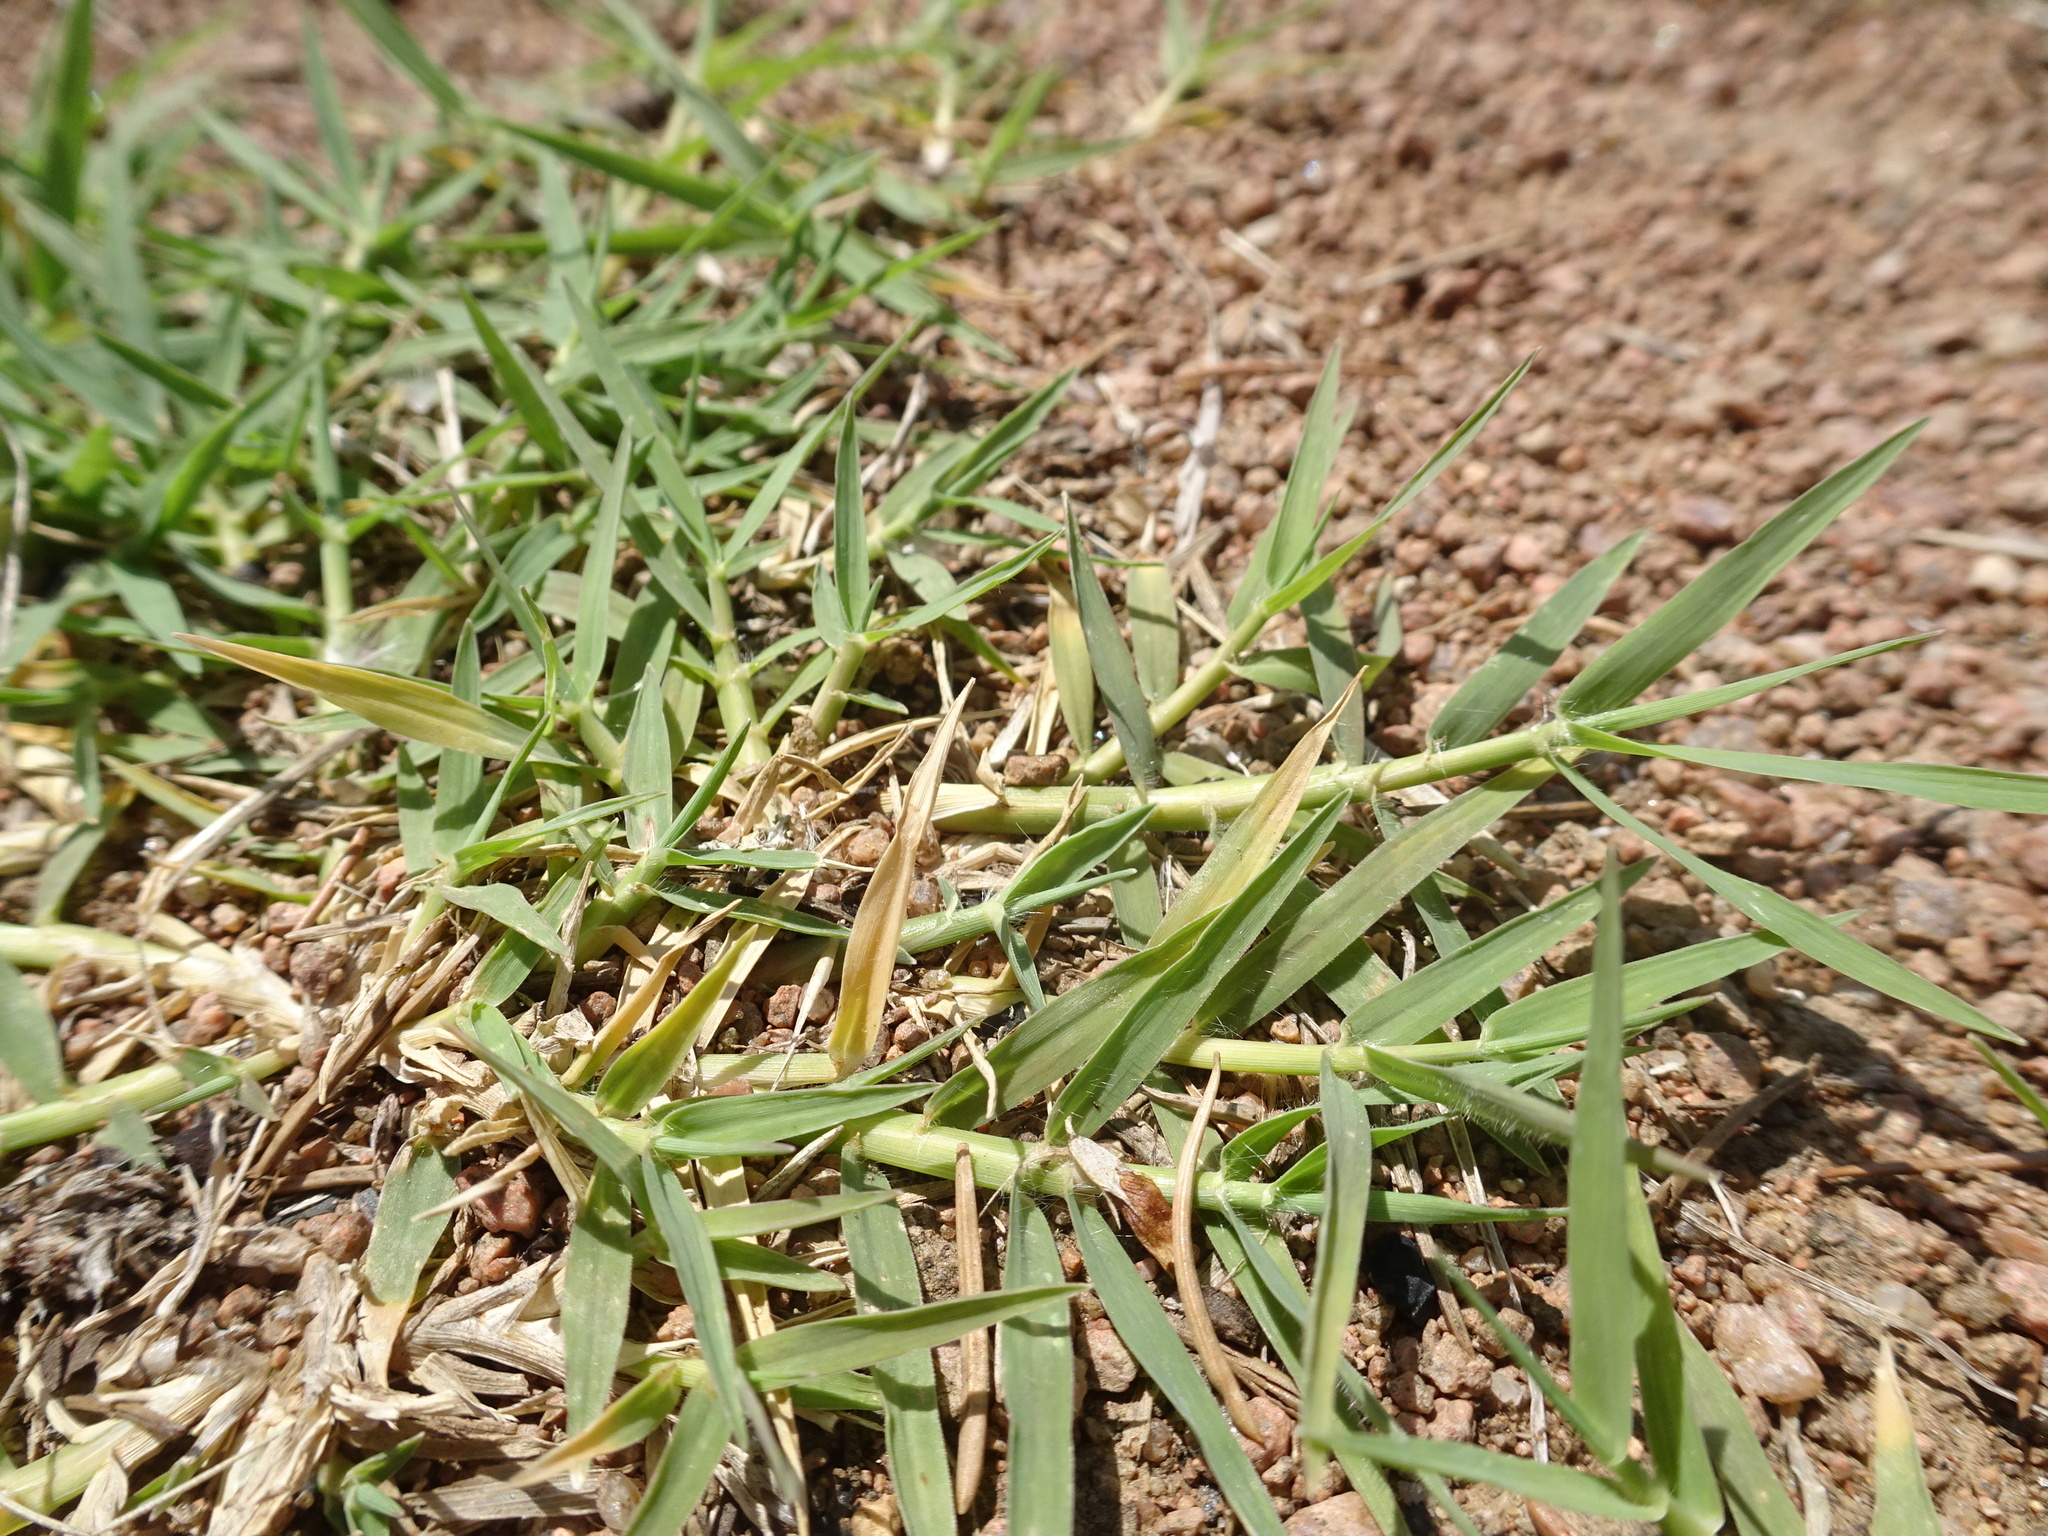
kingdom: Plantae
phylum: Tracheophyta
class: Liliopsida
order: Poales
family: Poaceae
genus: Cynodon
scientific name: Cynodon dactylon
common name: Bermuda grass
